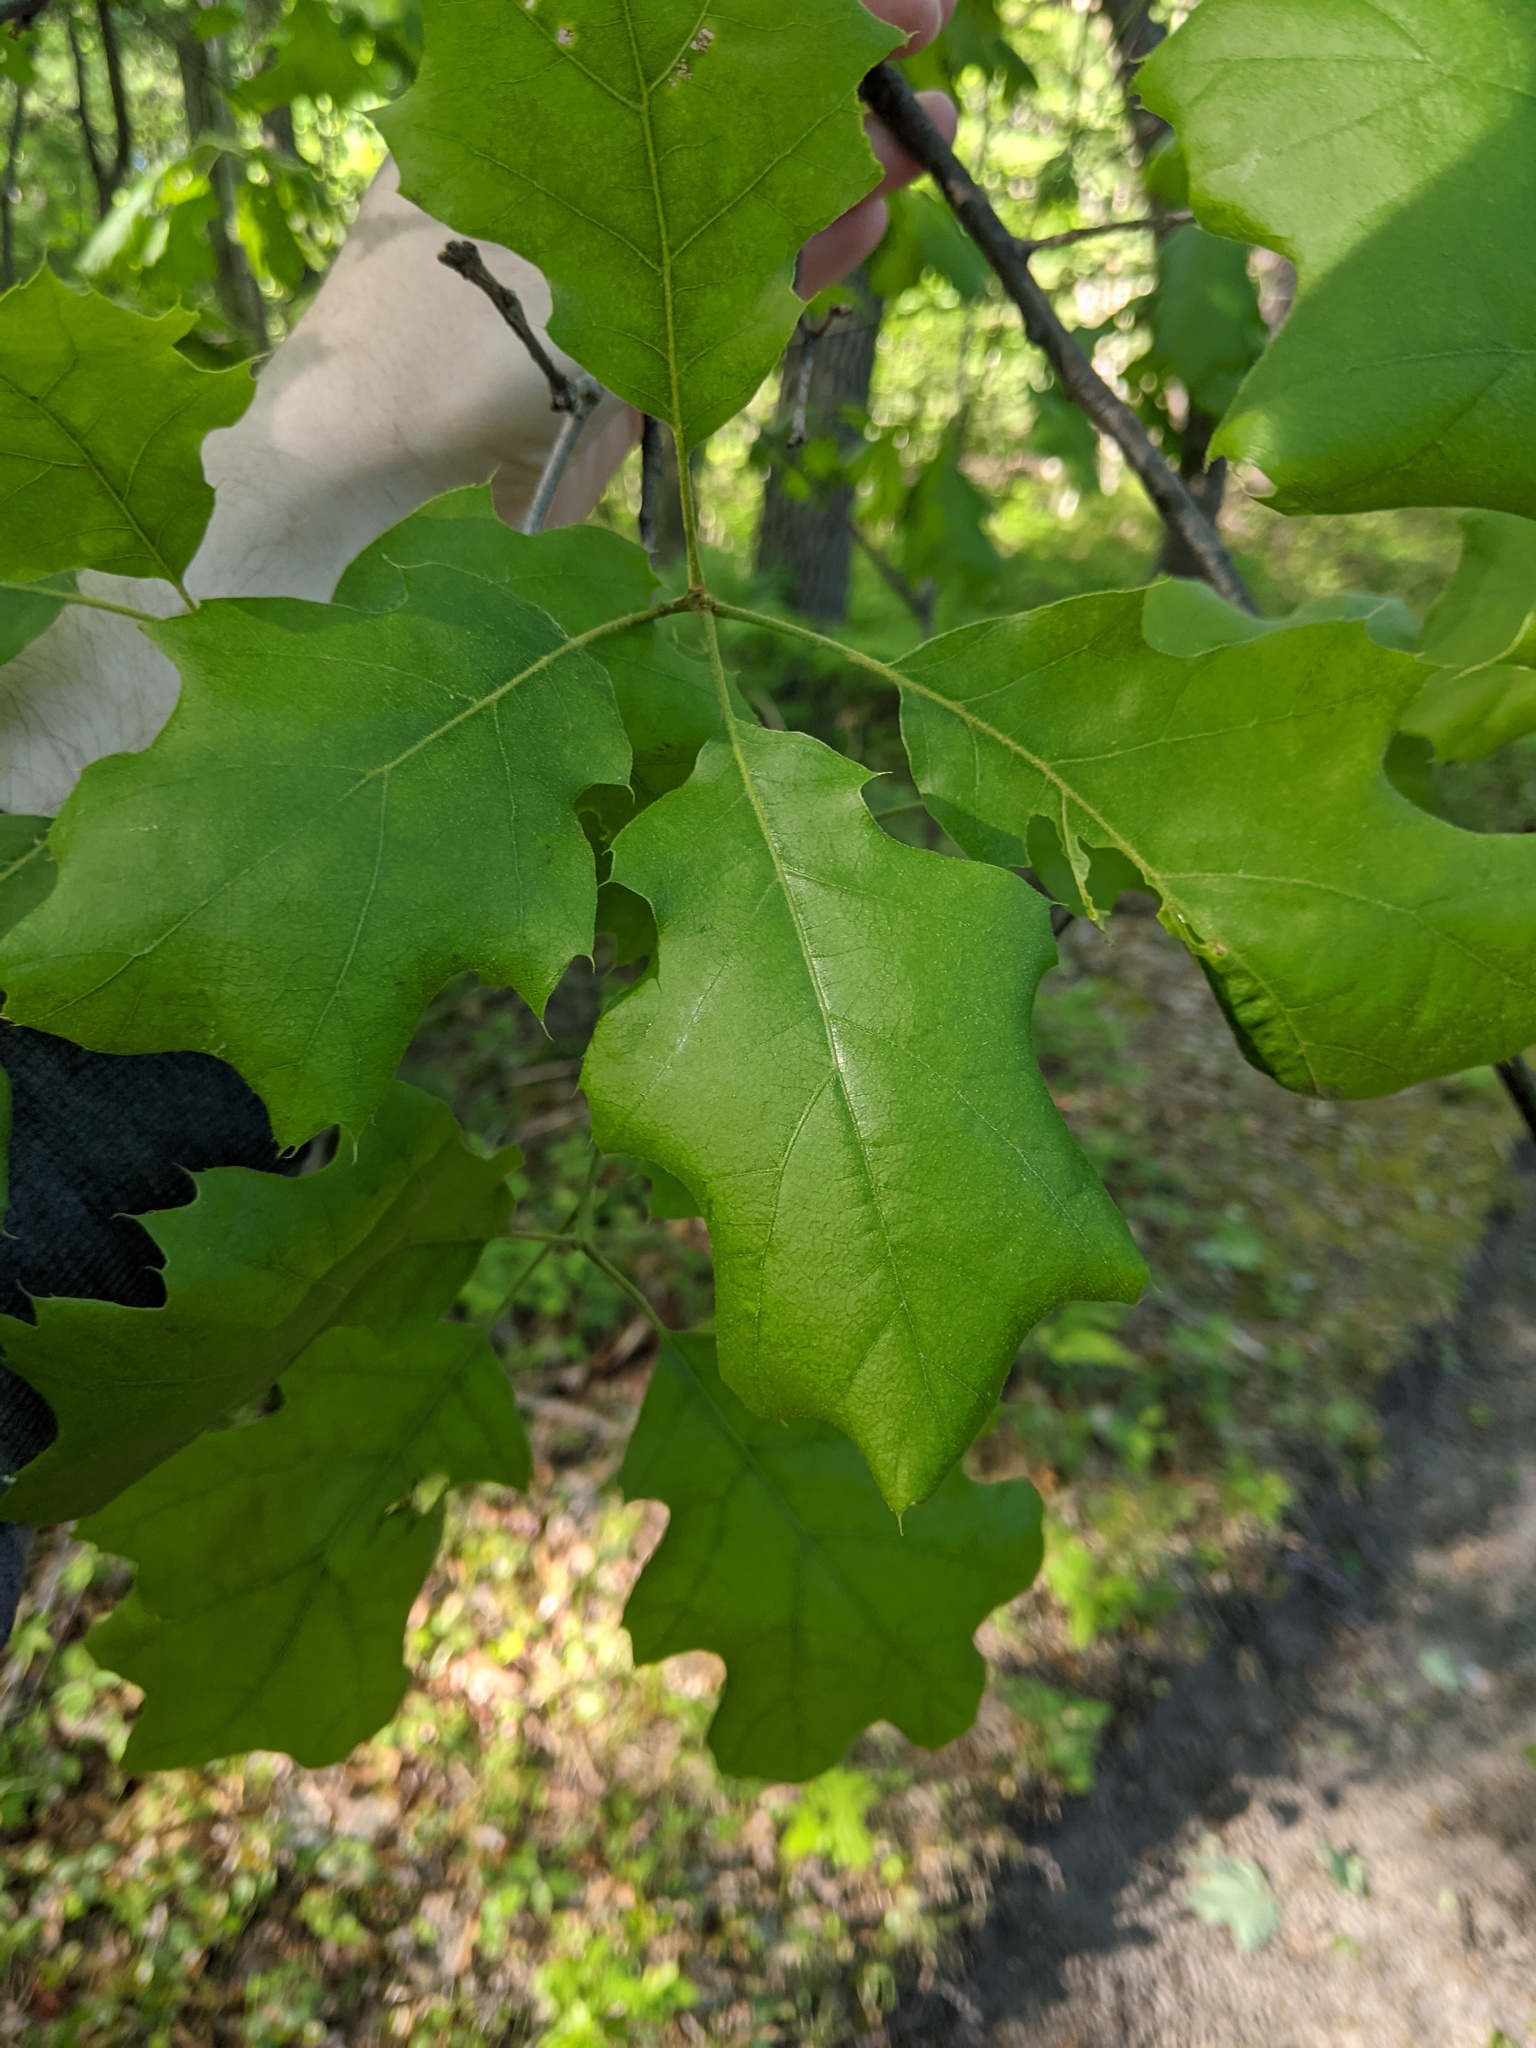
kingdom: Plantae
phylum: Tracheophyta
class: Magnoliopsida
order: Fagales
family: Fagaceae
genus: Quercus
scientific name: Quercus velutina
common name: Black oak
